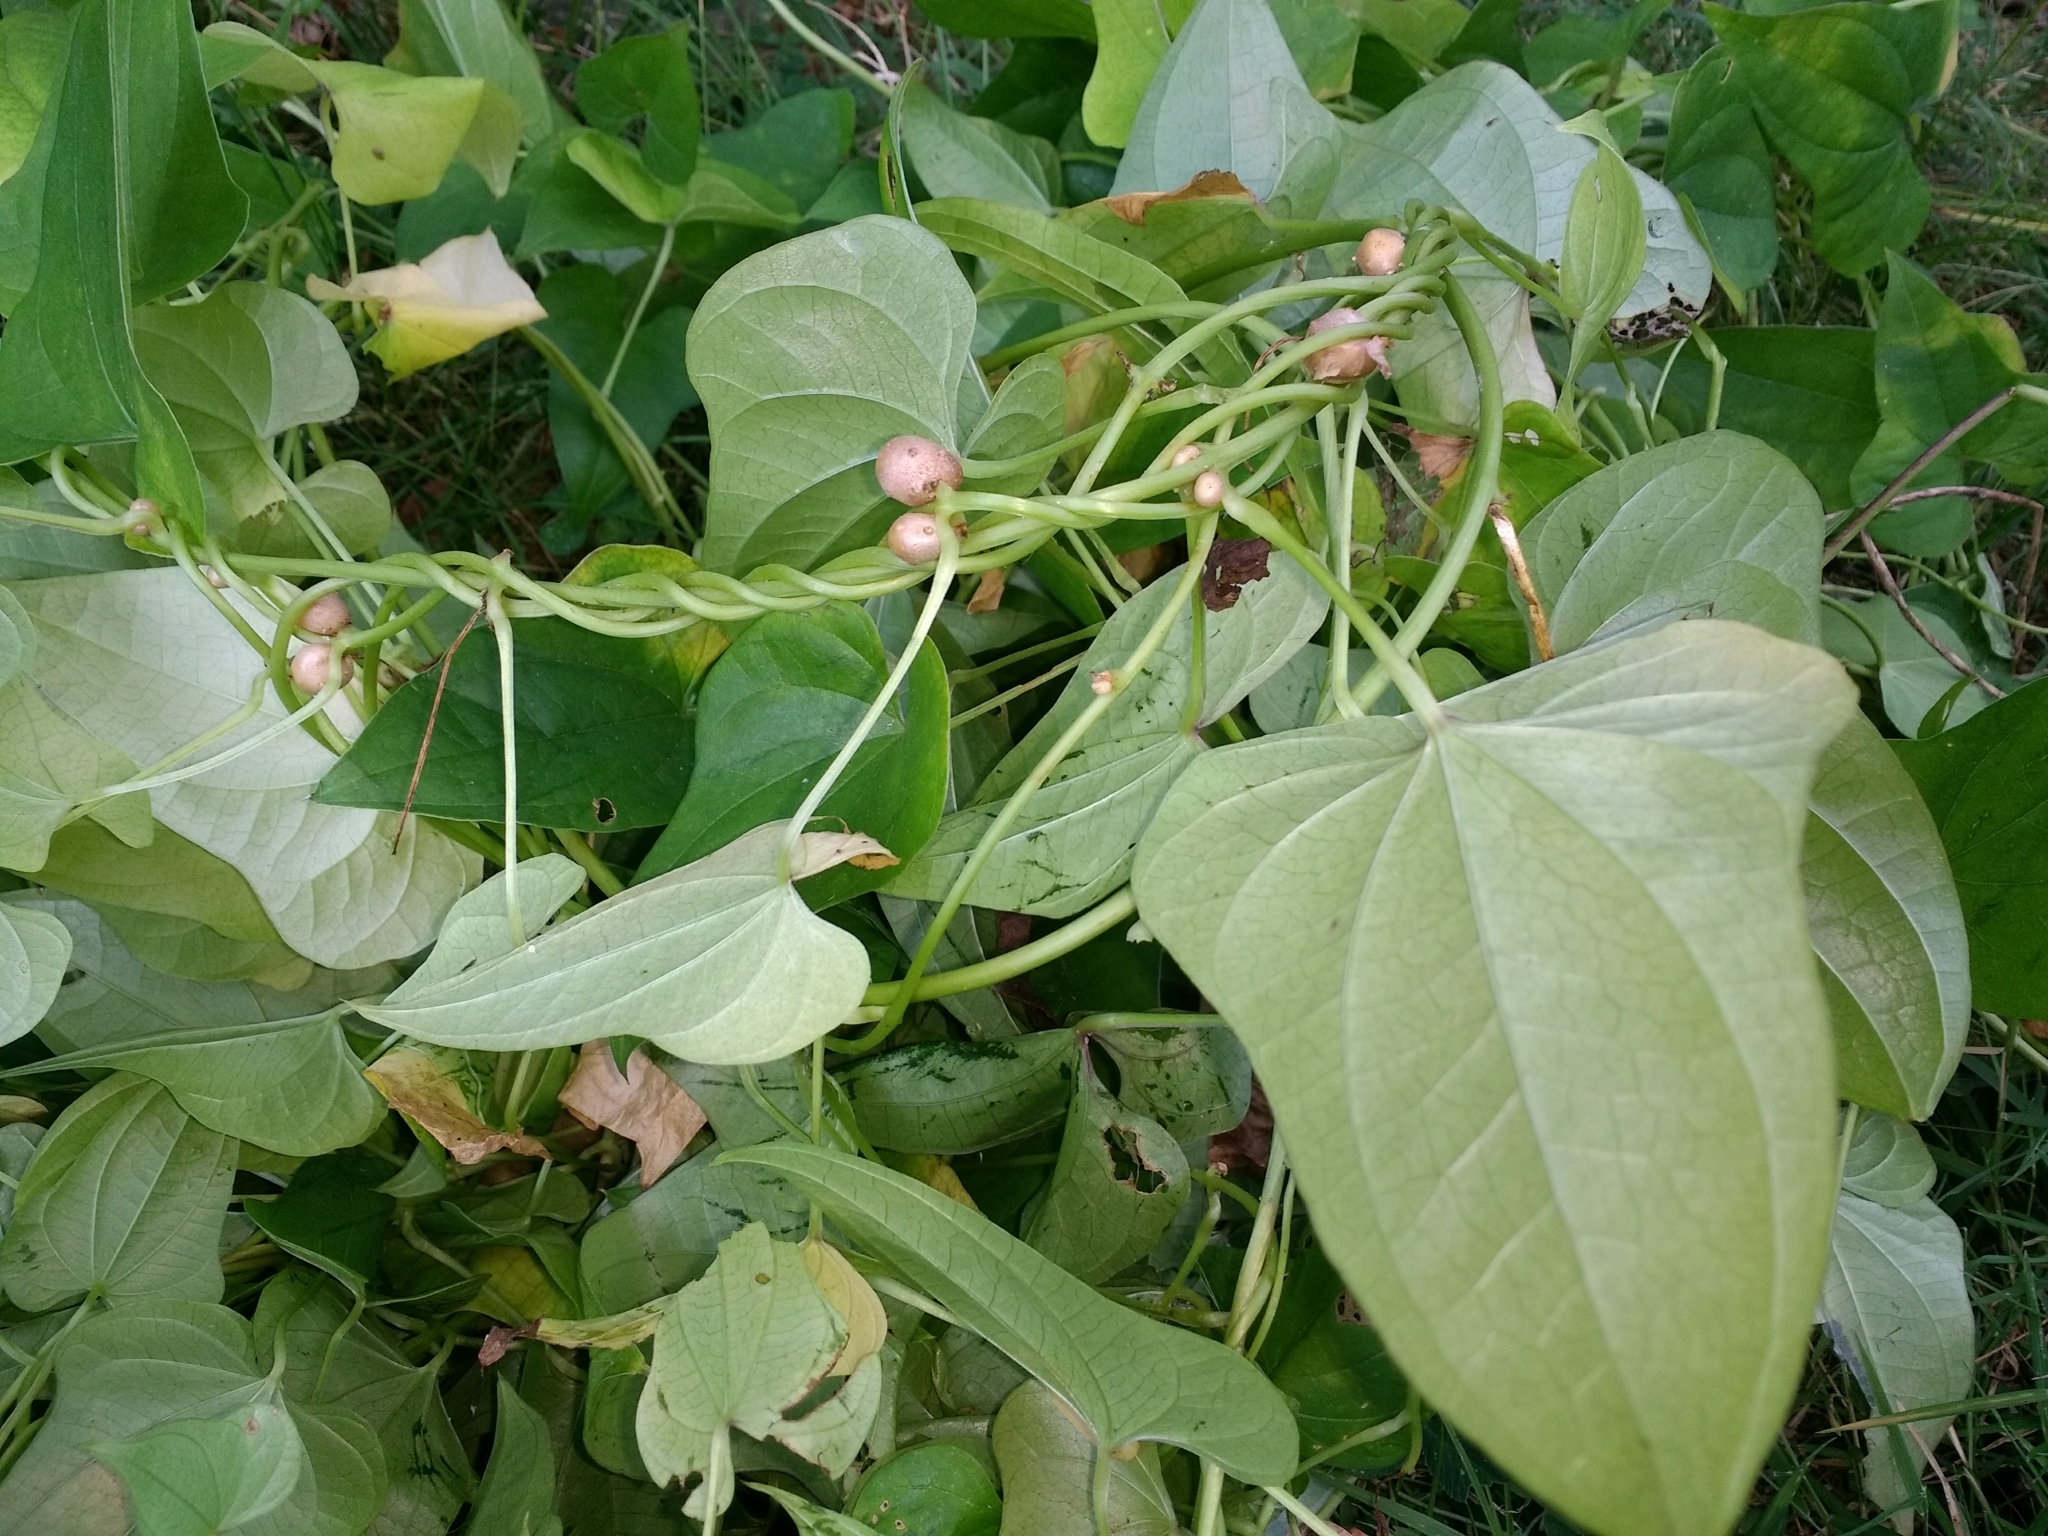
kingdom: Plantae
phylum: Tracheophyta
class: Liliopsida
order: Dioscoreales
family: Dioscoreaceae
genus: Dioscorea
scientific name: Dioscorea polystachya
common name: Chinese yam
